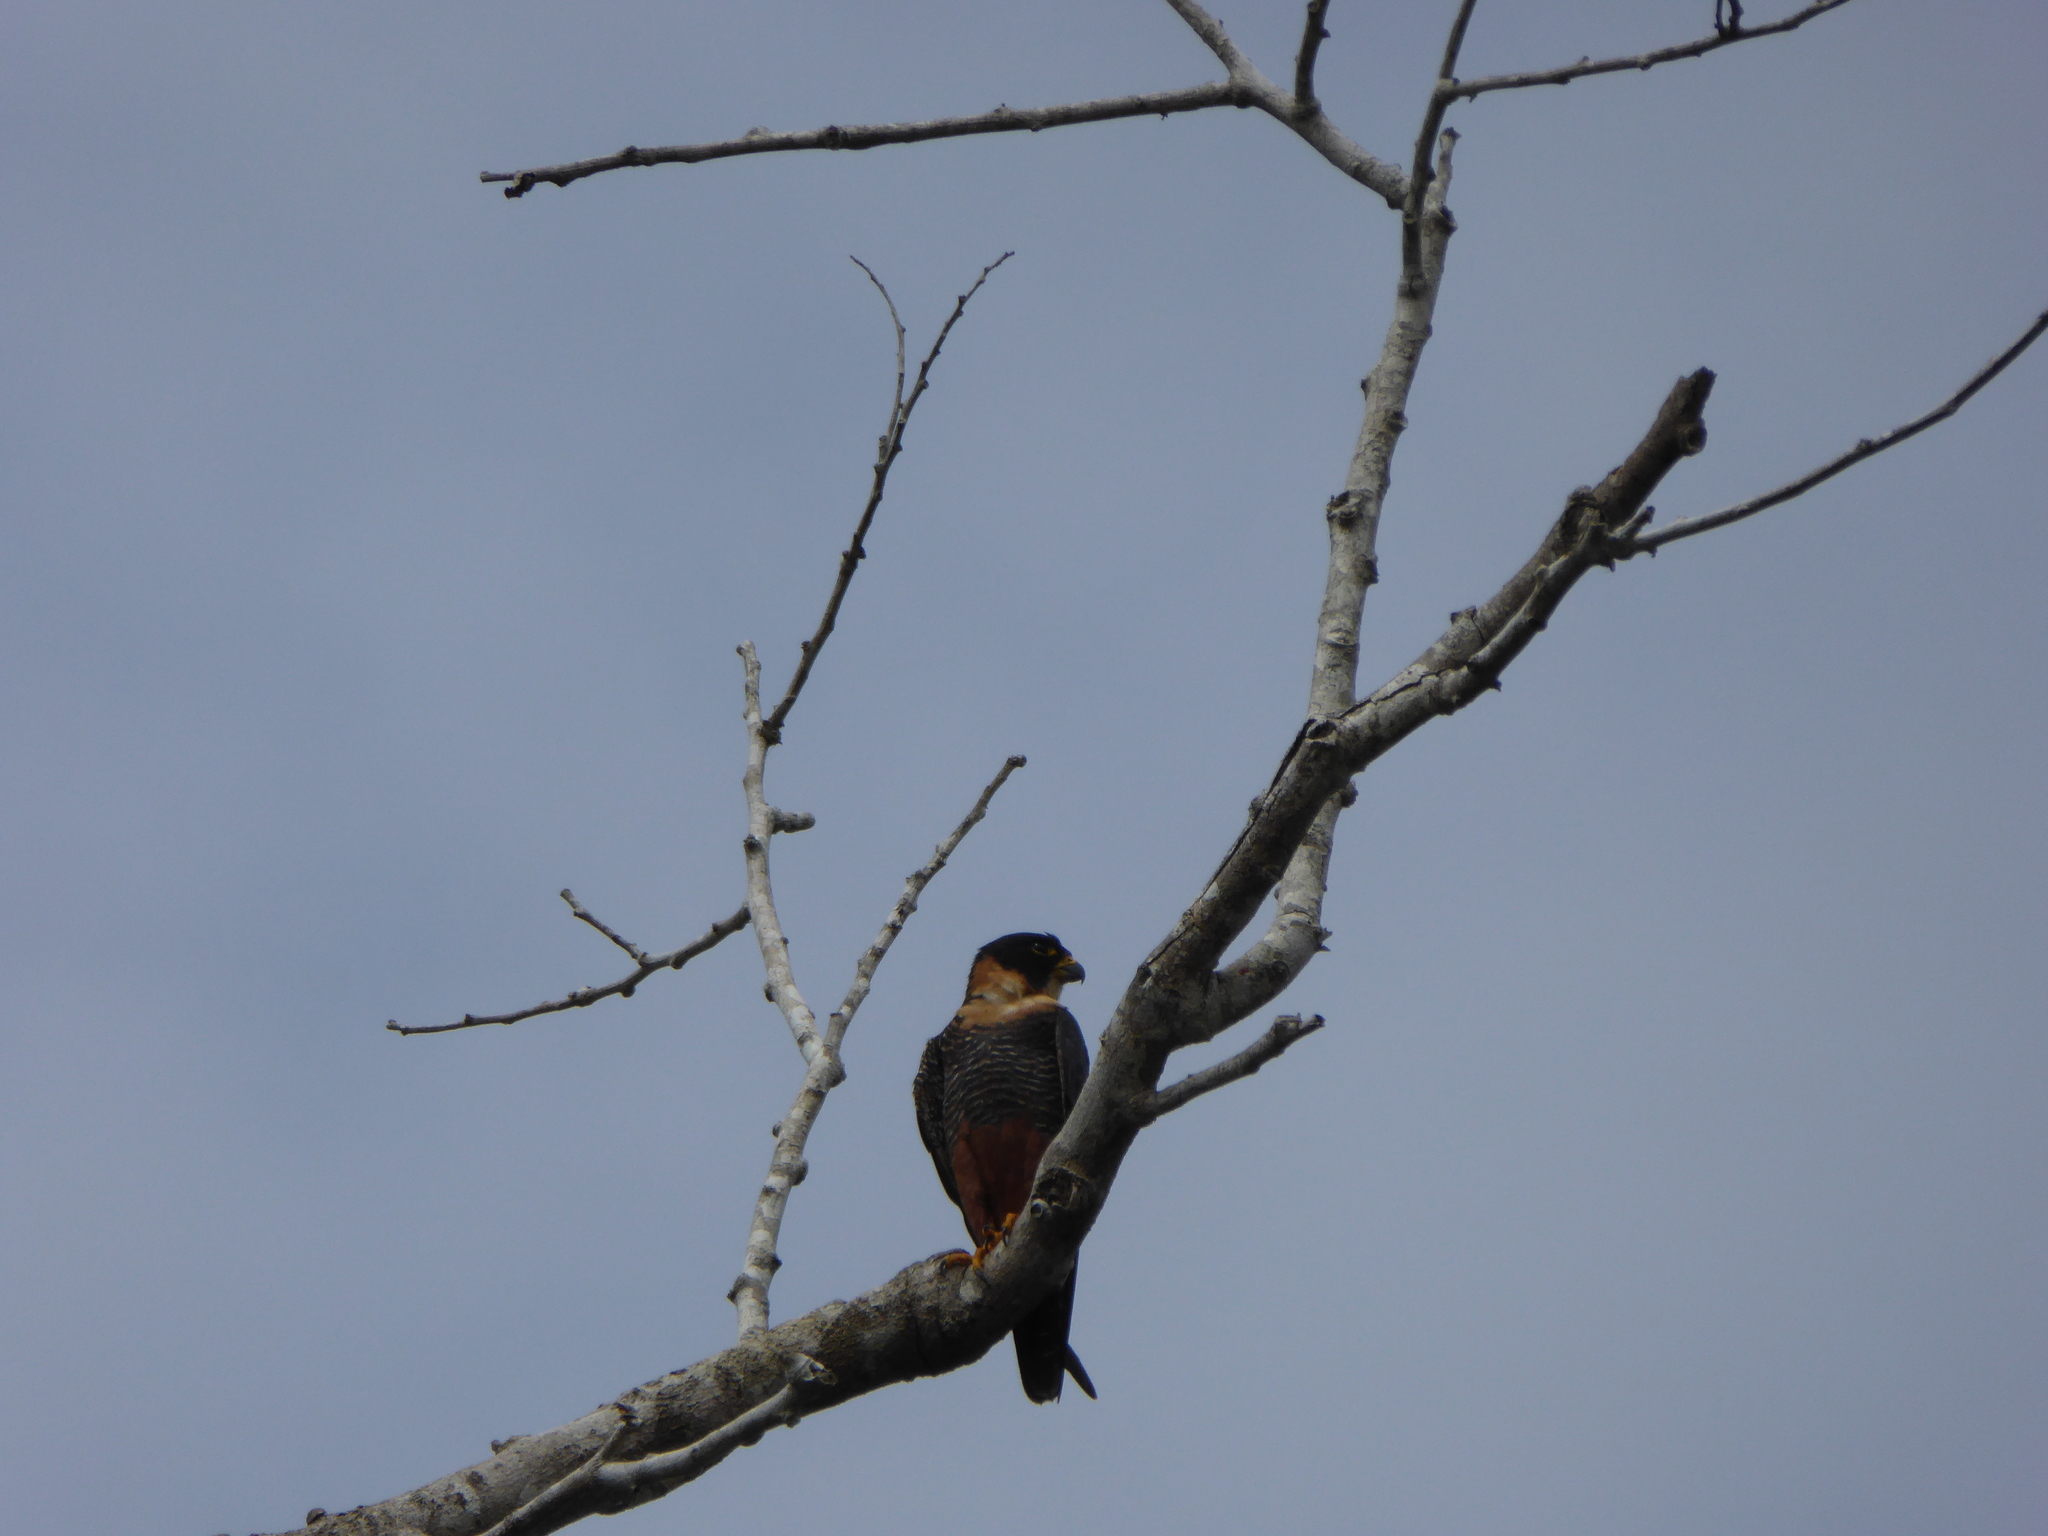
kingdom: Animalia
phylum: Chordata
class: Aves
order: Falconiformes
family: Falconidae
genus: Falco
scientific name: Falco rufigularis
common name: Bat falcon
